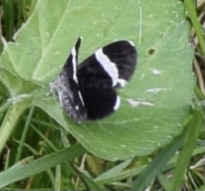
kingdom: Animalia
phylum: Arthropoda
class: Insecta
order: Lepidoptera
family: Geometridae
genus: Trichodezia
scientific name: Trichodezia albovittata
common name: White striped black
